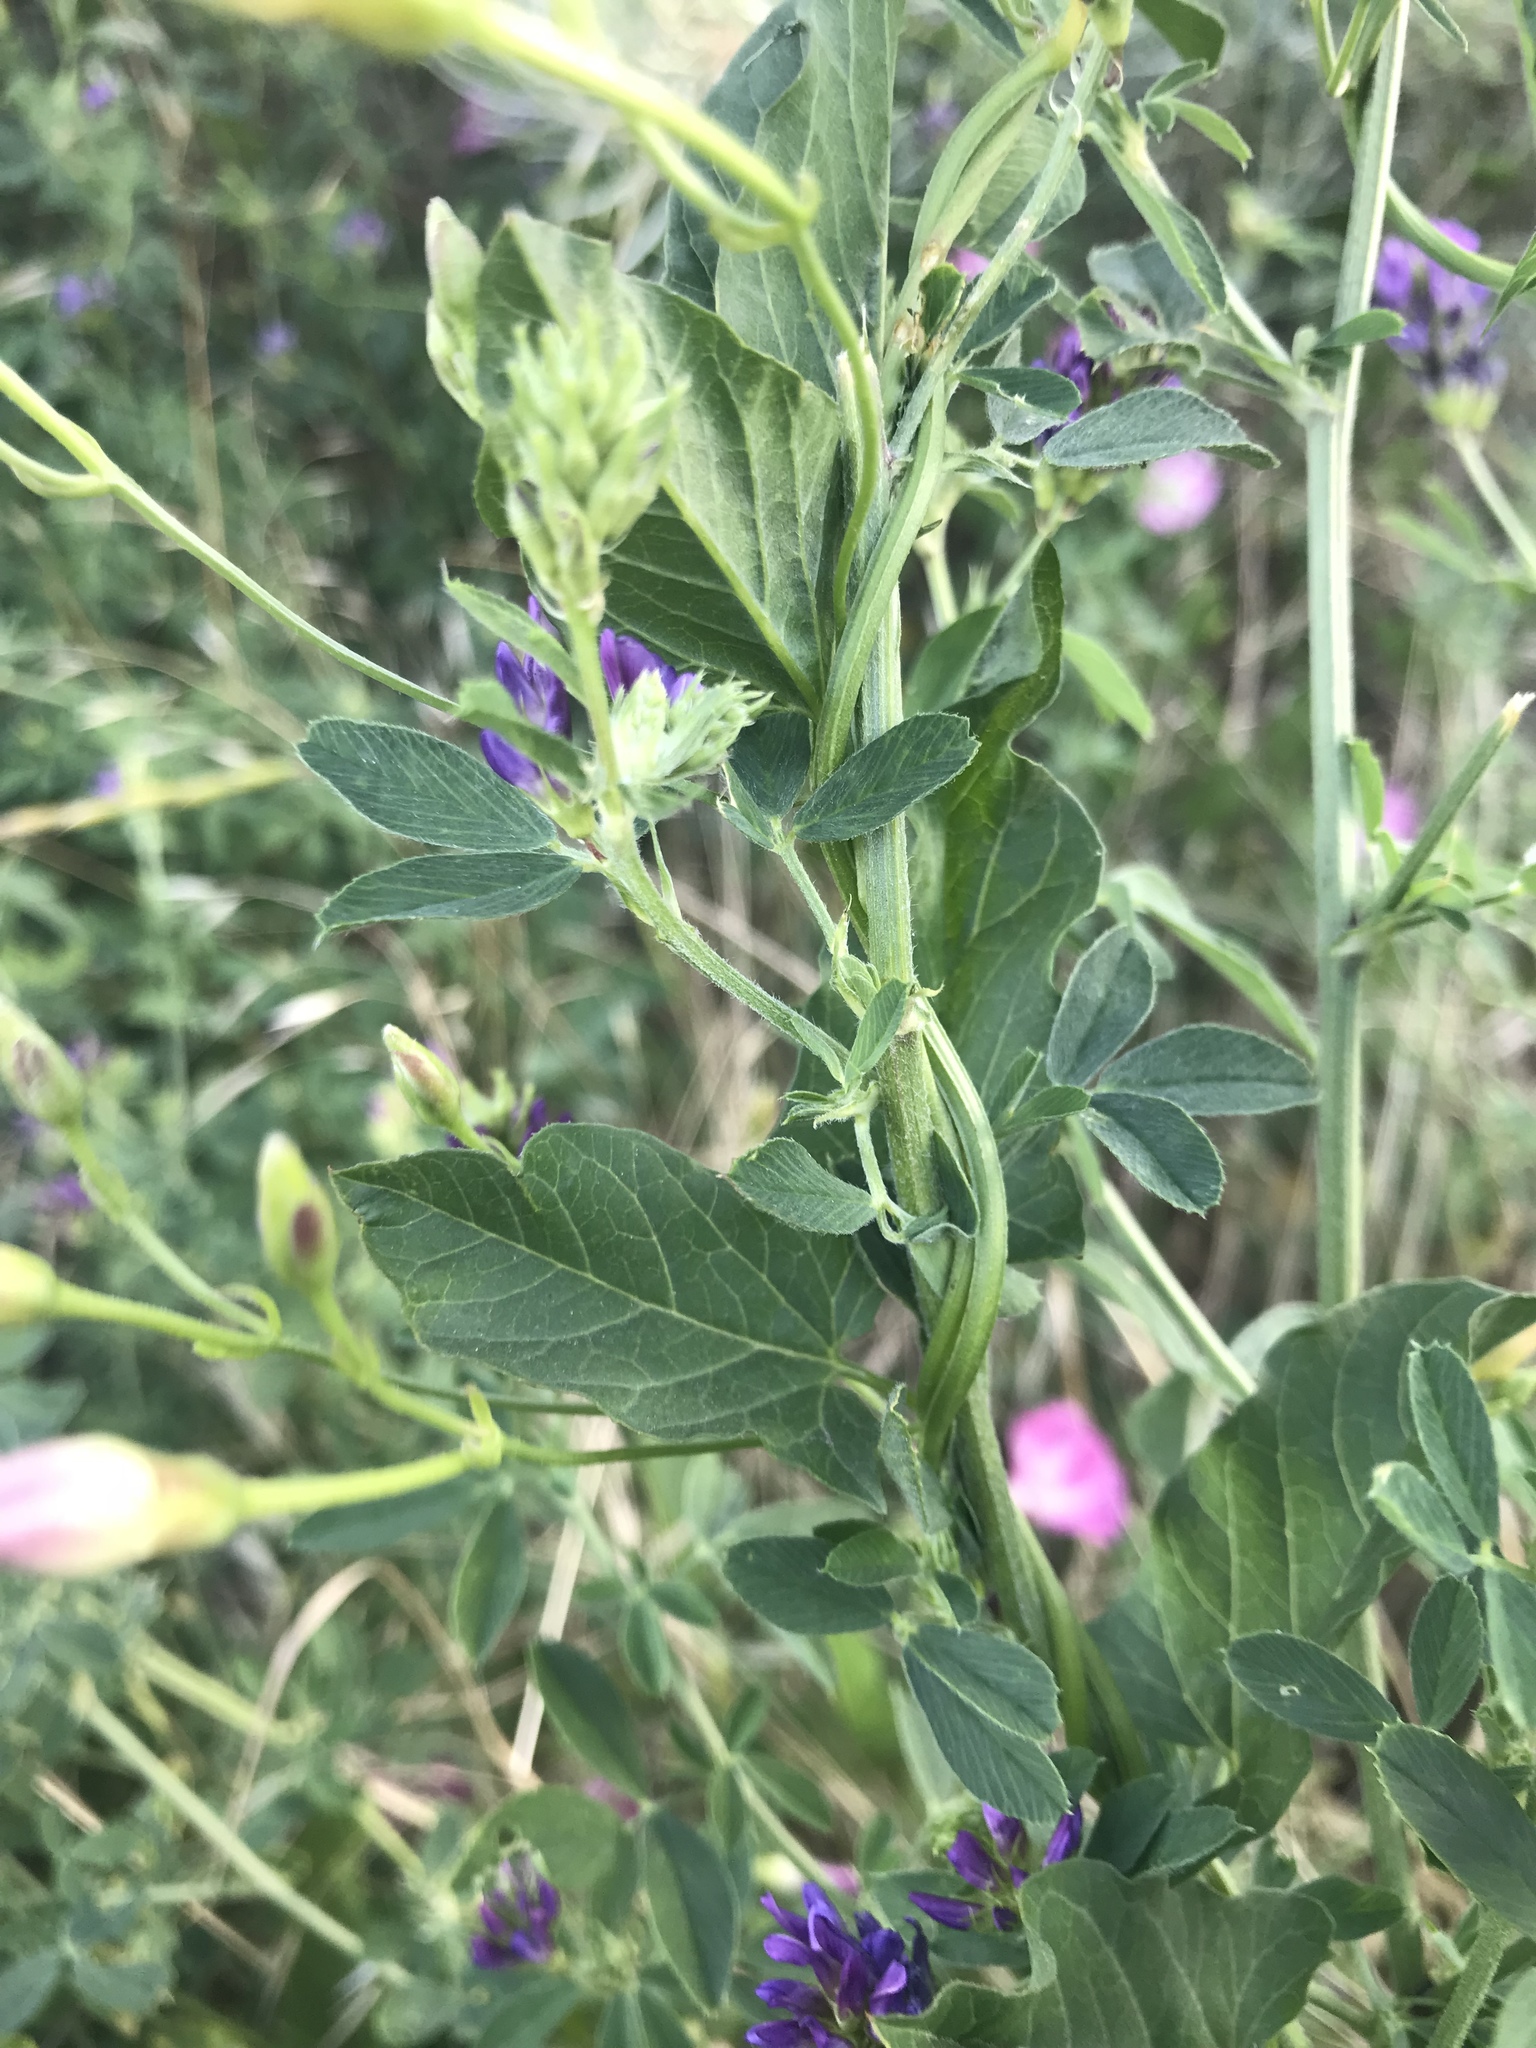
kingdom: Plantae
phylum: Tracheophyta
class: Magnoliopsida
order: Solanales
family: Convolvulaceae
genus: Convolvulus
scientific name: Convolvulus arvensis
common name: Field bindweed
